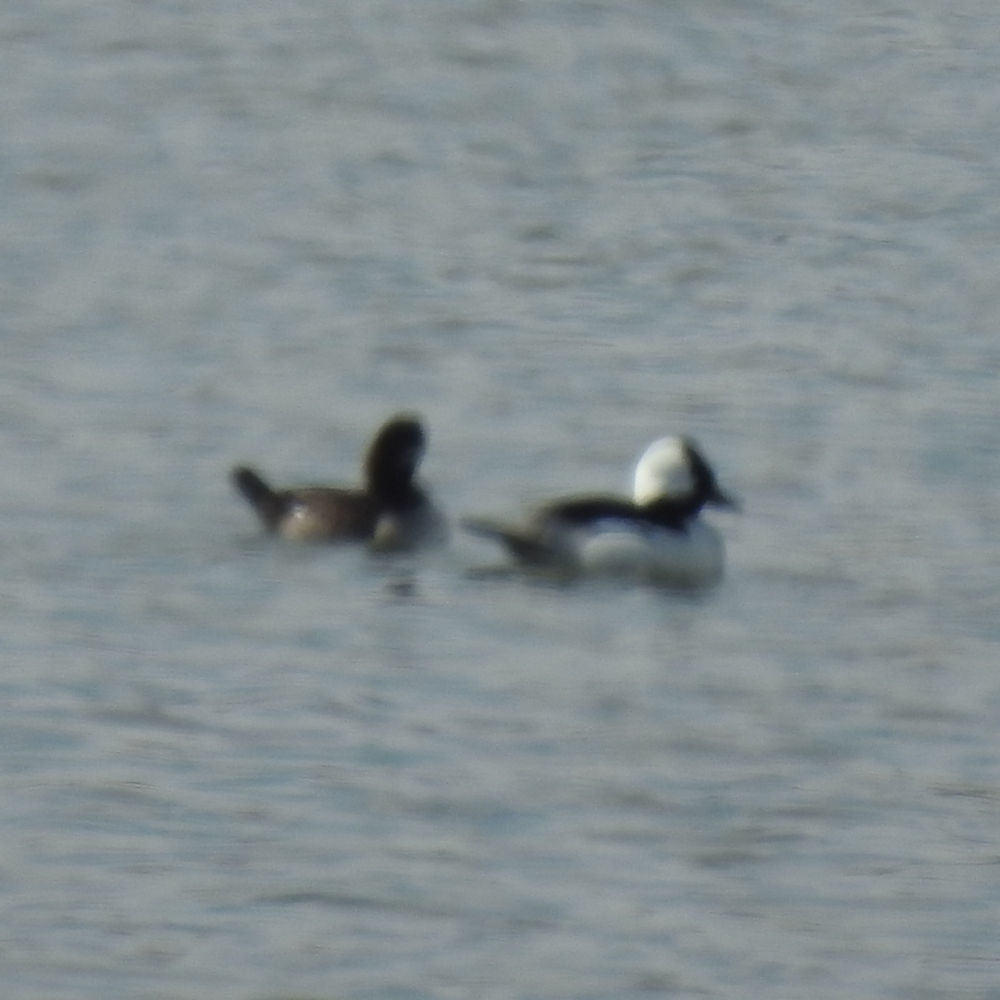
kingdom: Animalia
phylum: Chordata
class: Aves
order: Anseriformes
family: Anatidae
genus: Bucephala
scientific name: Bucephala albeola
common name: Bufflehead
